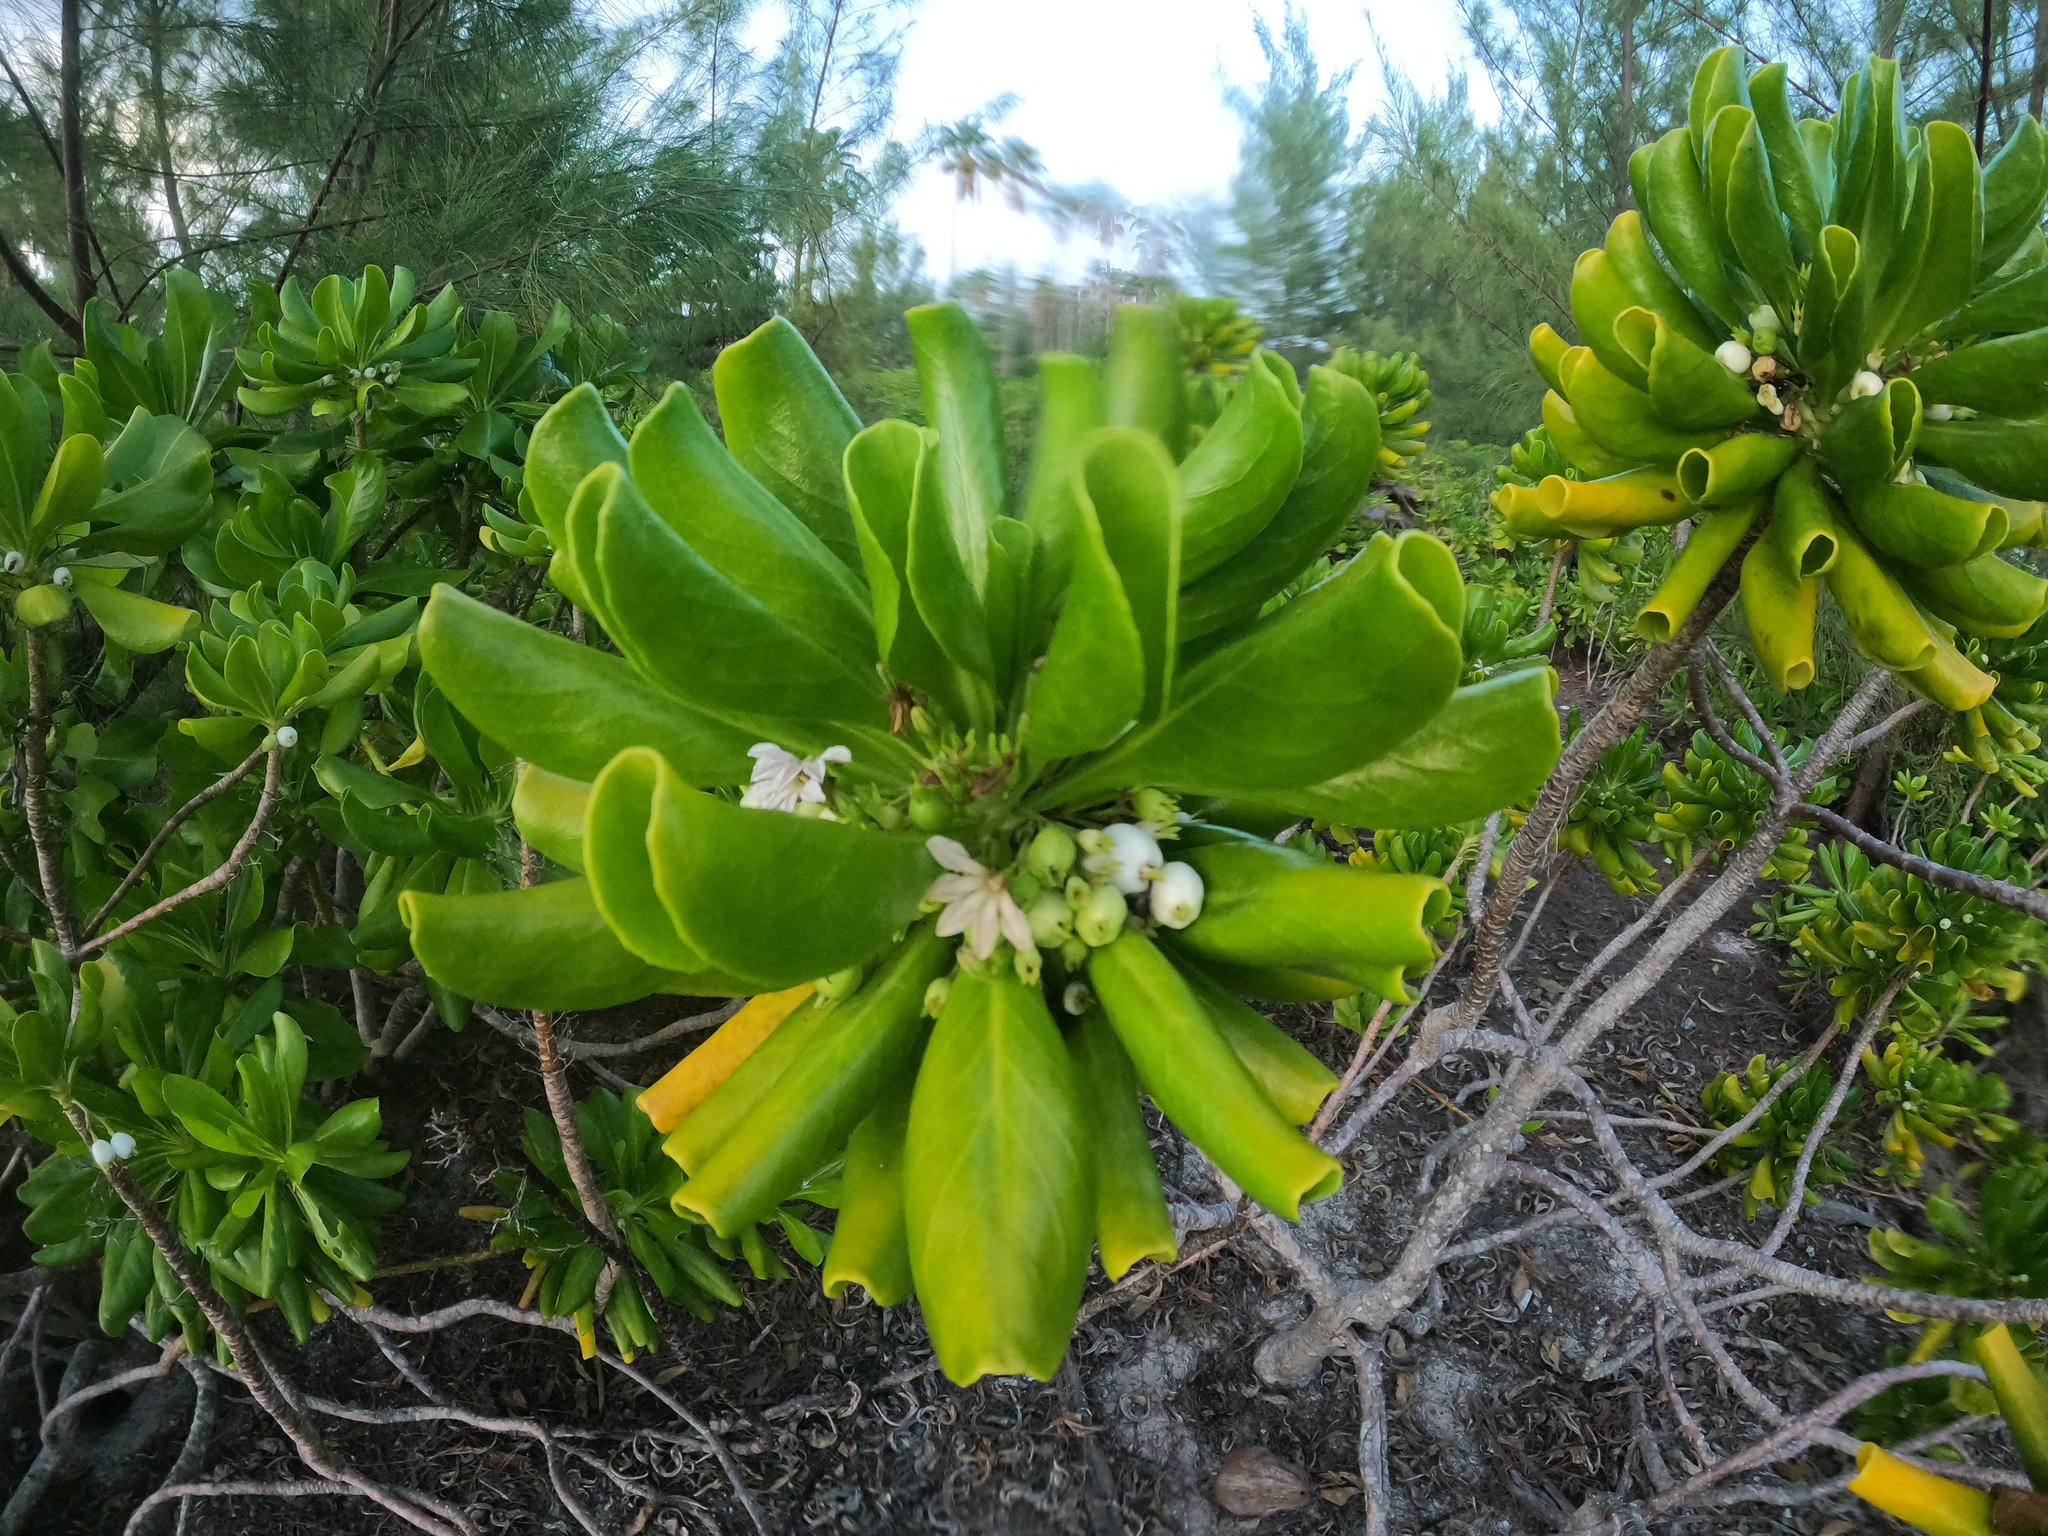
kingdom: Plantae
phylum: Tracheophyta
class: Magnoliopsida
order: Asterales
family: Goodeniaceae
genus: Scaevola
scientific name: Scaevola taccada
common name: Sea lettucetree
